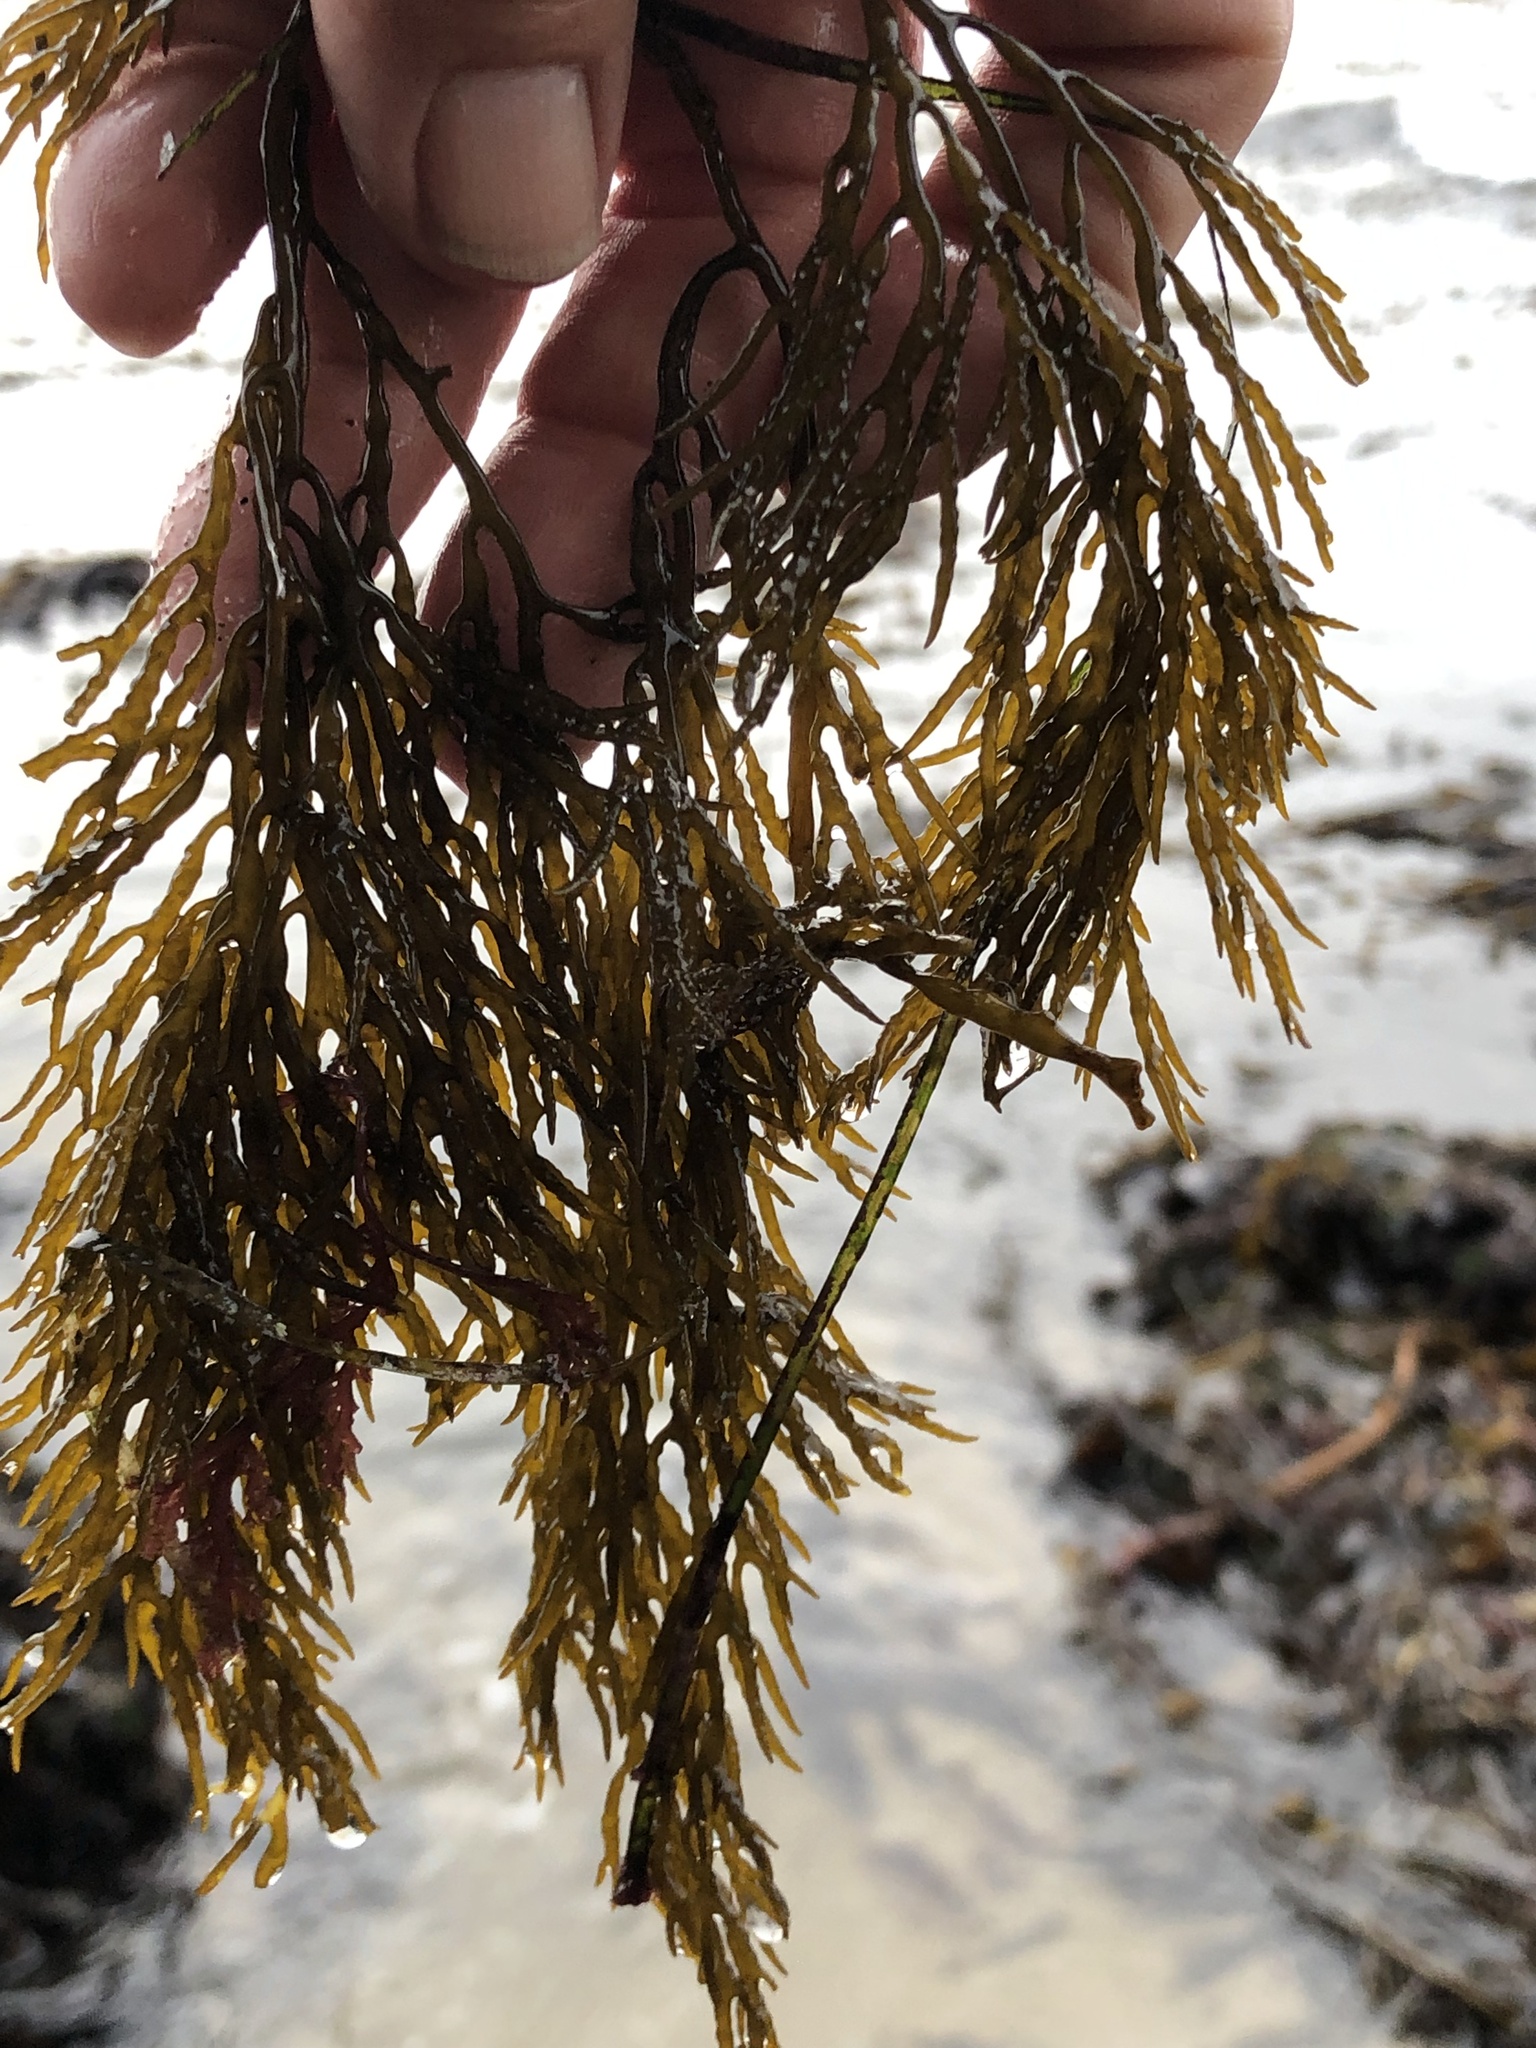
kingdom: Chromista
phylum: Ochrophyta
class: Phaeophyceae
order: Fucales
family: Sargassaceae
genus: Stephanocystis
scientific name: Stephanocystis
